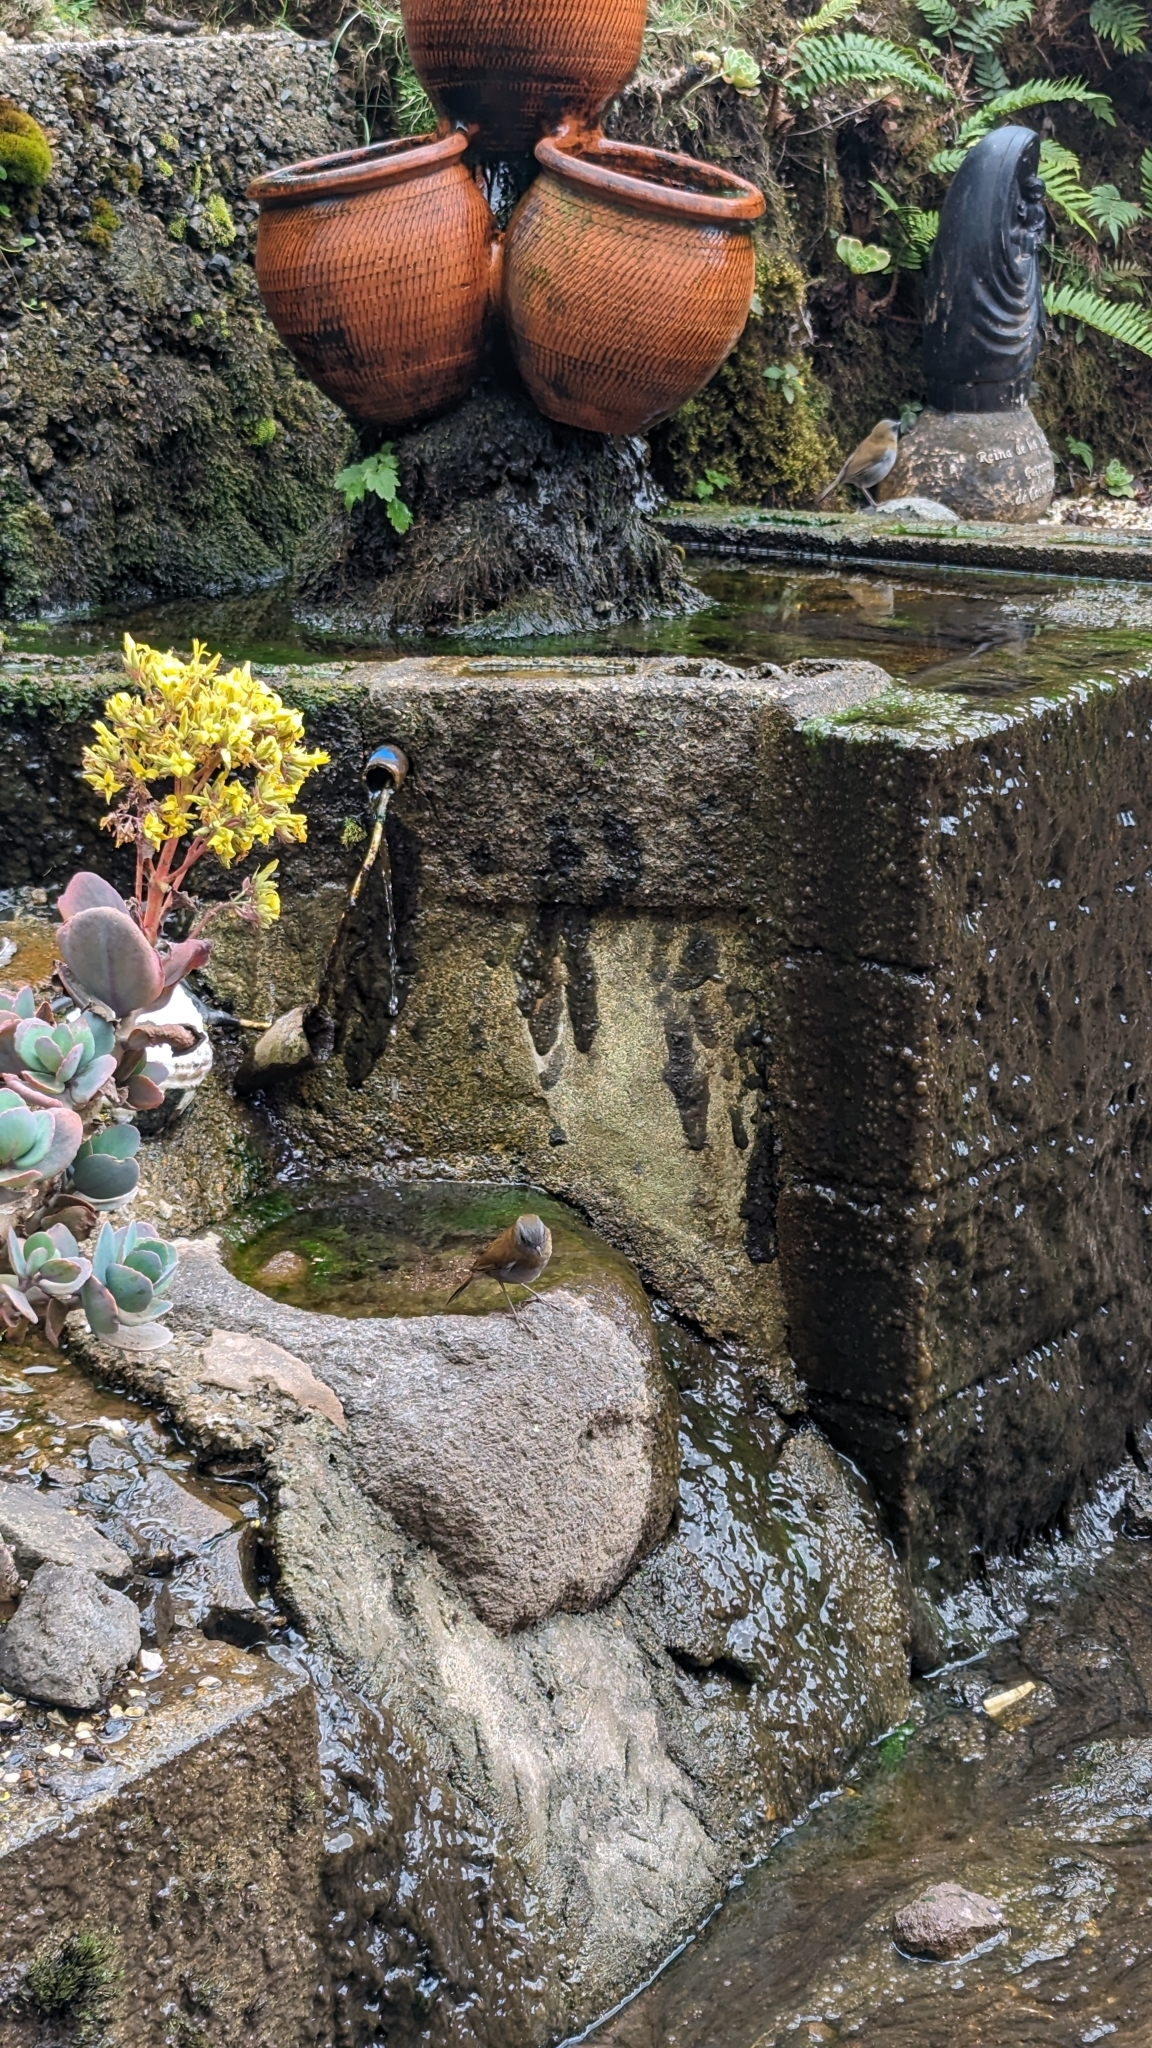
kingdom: Animalia
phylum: Chordata
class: Aves
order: Passeriformes
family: Turdidae
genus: Catharus
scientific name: Catharus gracilirostris
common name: Black-billed nightingale-thrush
